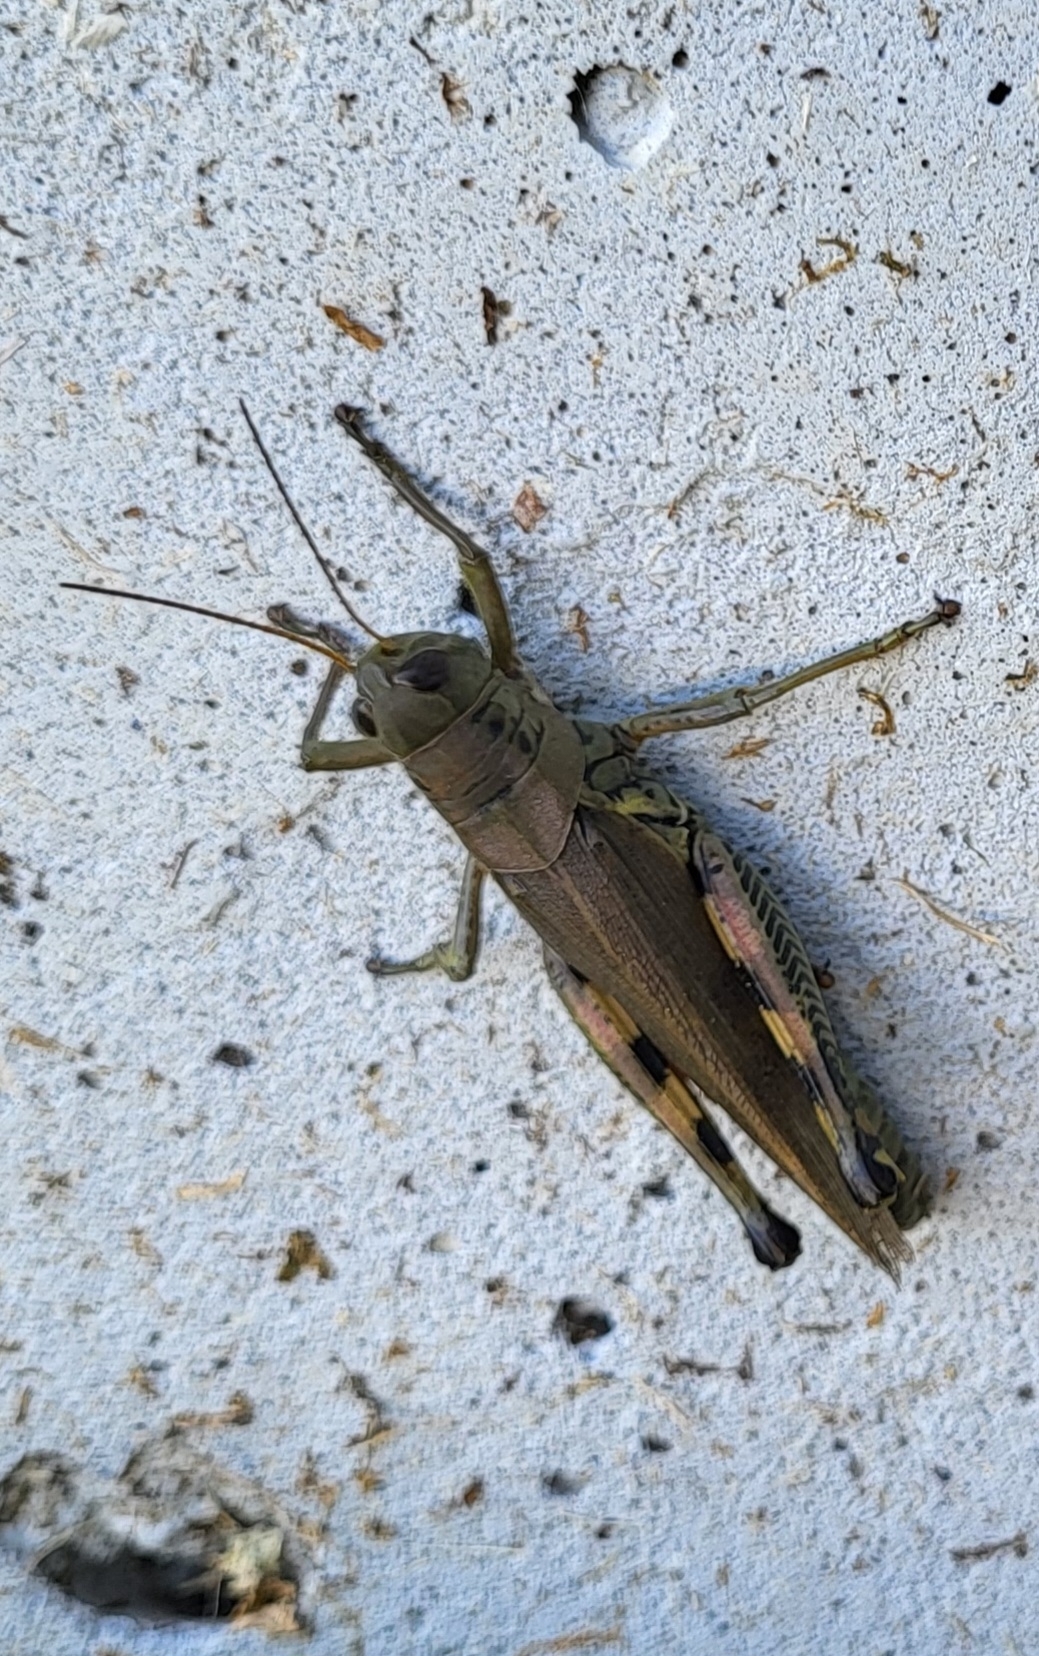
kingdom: Animalia
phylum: Arthropoda
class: Insecta
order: Orthoptera
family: Acrididae
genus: Melanoplus
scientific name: Melanoplus differentialis
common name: Differential grasshopper
